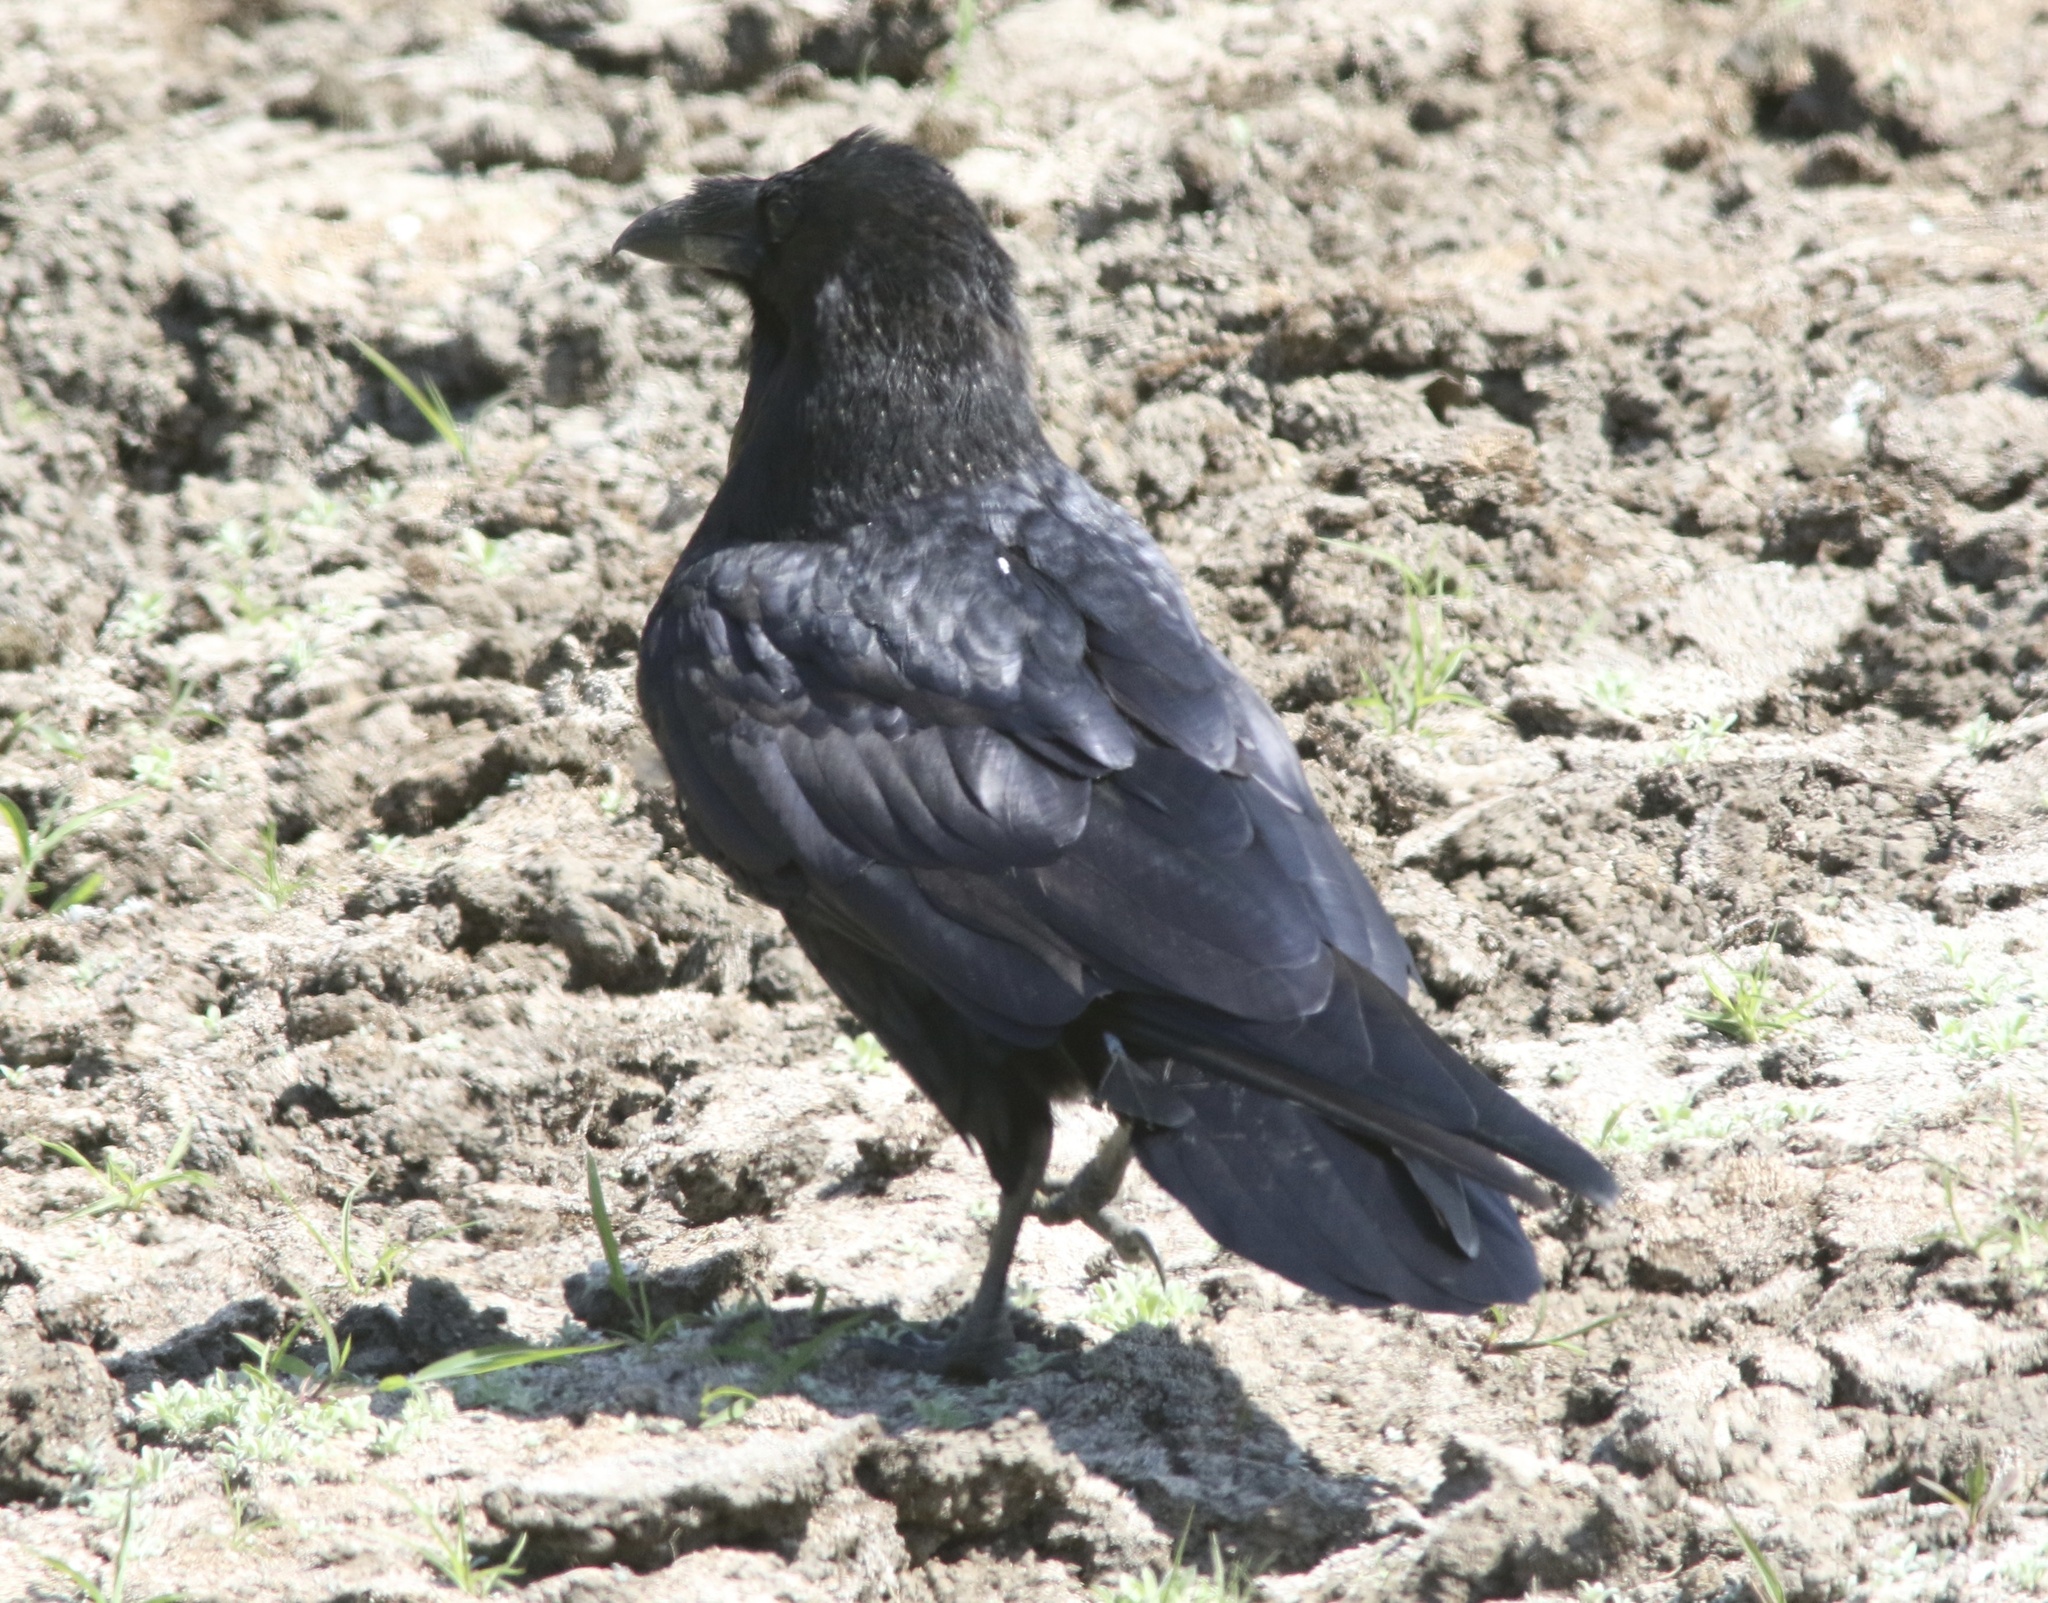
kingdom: Animalia
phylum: Chordata
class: Aves
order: Passeriformes
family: Corvidae
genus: Corvus
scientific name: Corvus corax
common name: Common raven
